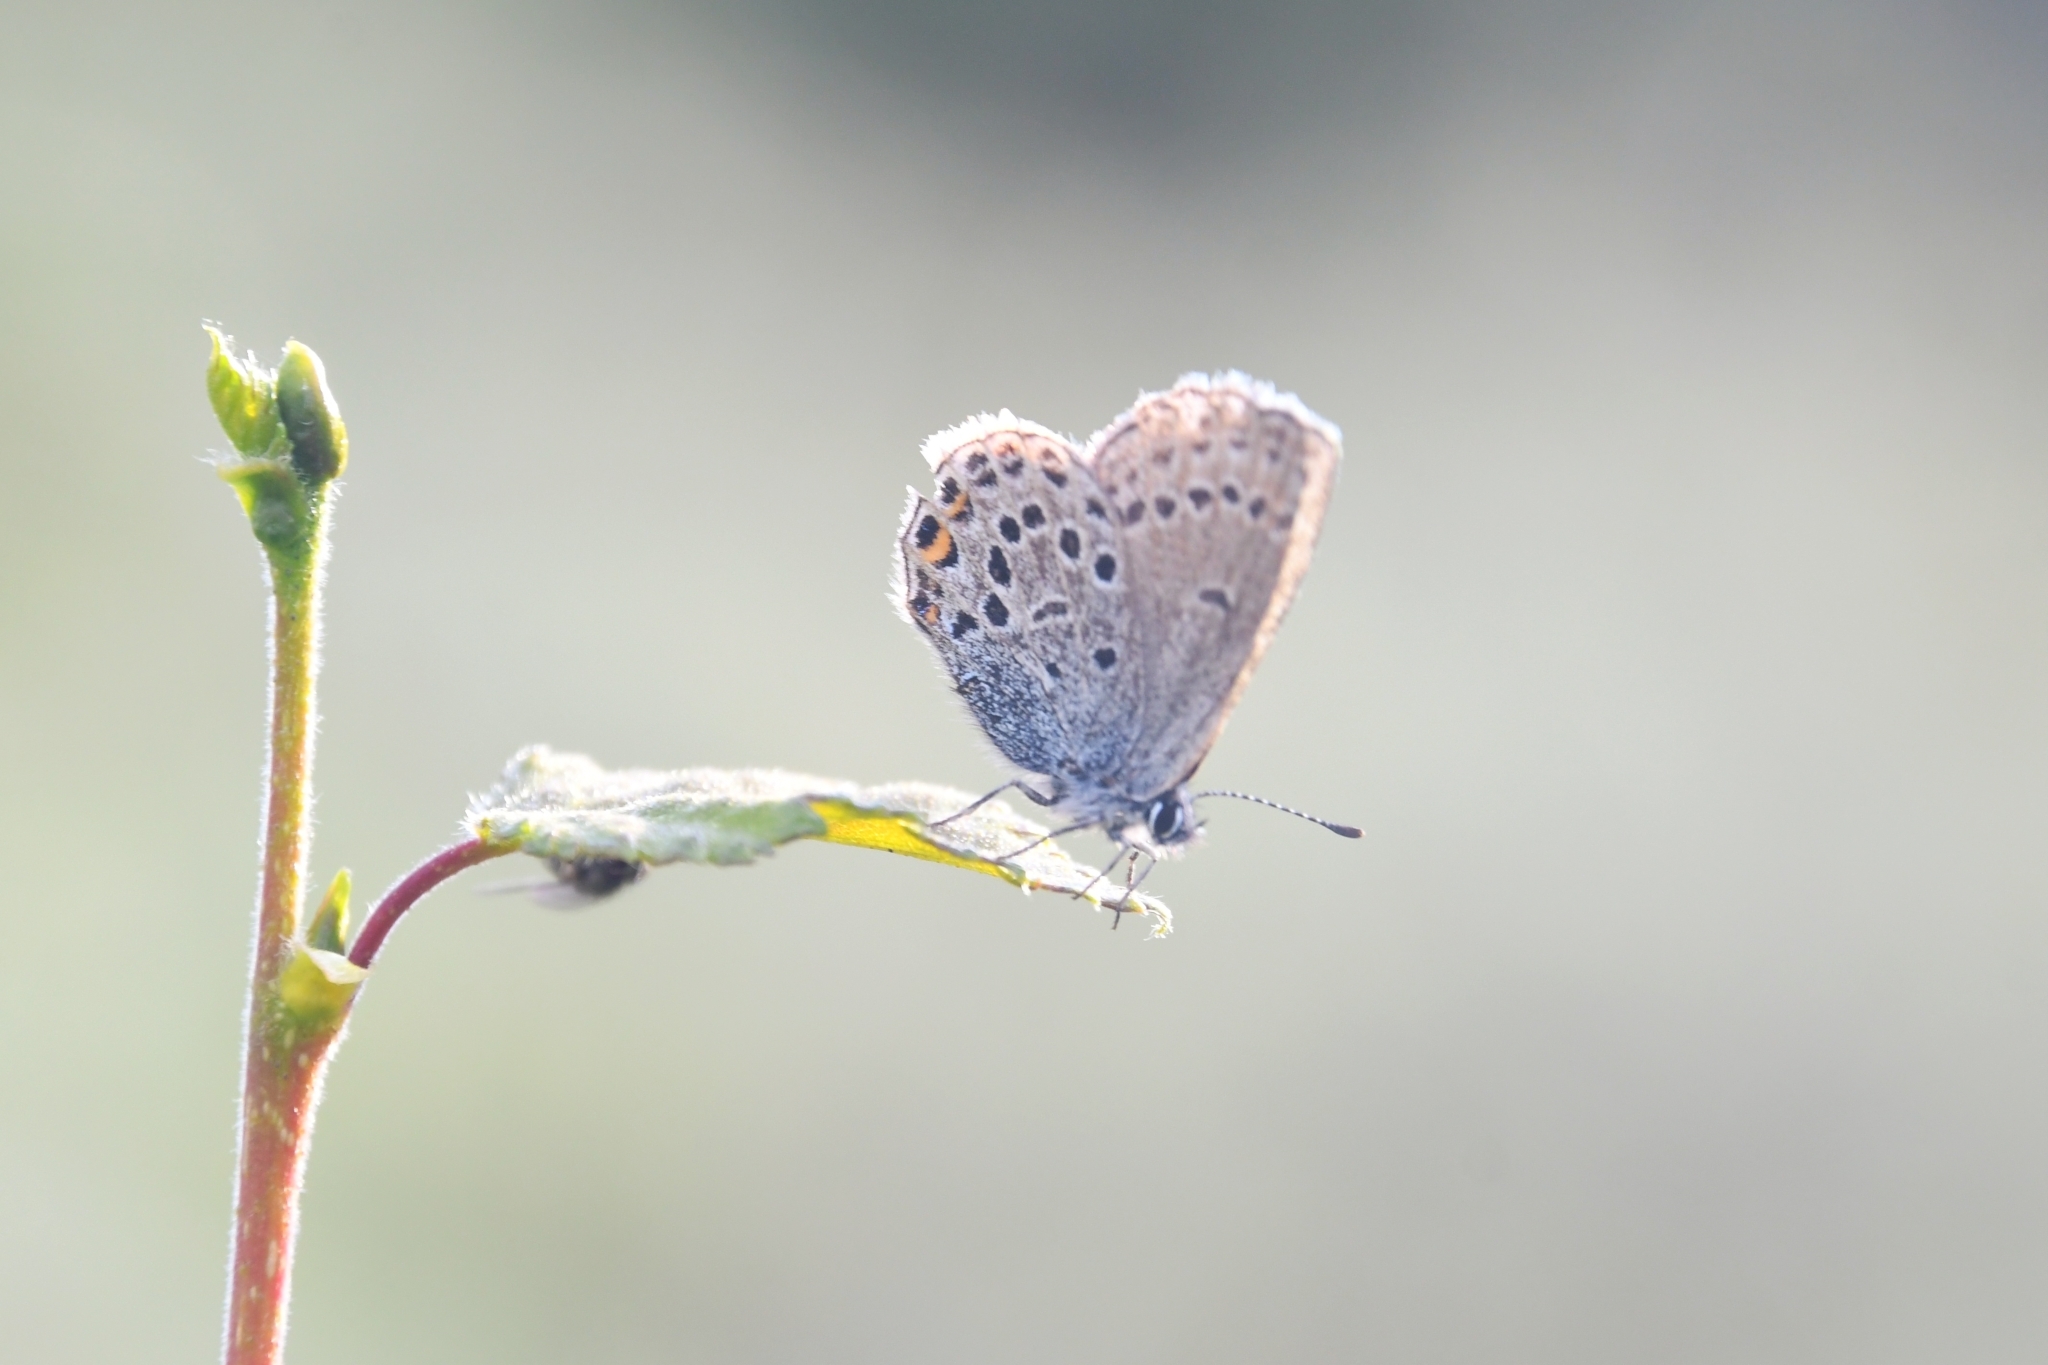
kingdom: Animalia
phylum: Arthropoda
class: Insecta
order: Lepidoptera
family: Lycaenidae
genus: Vacciniina
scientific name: Vacciniina optilete
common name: Cranberry blue
